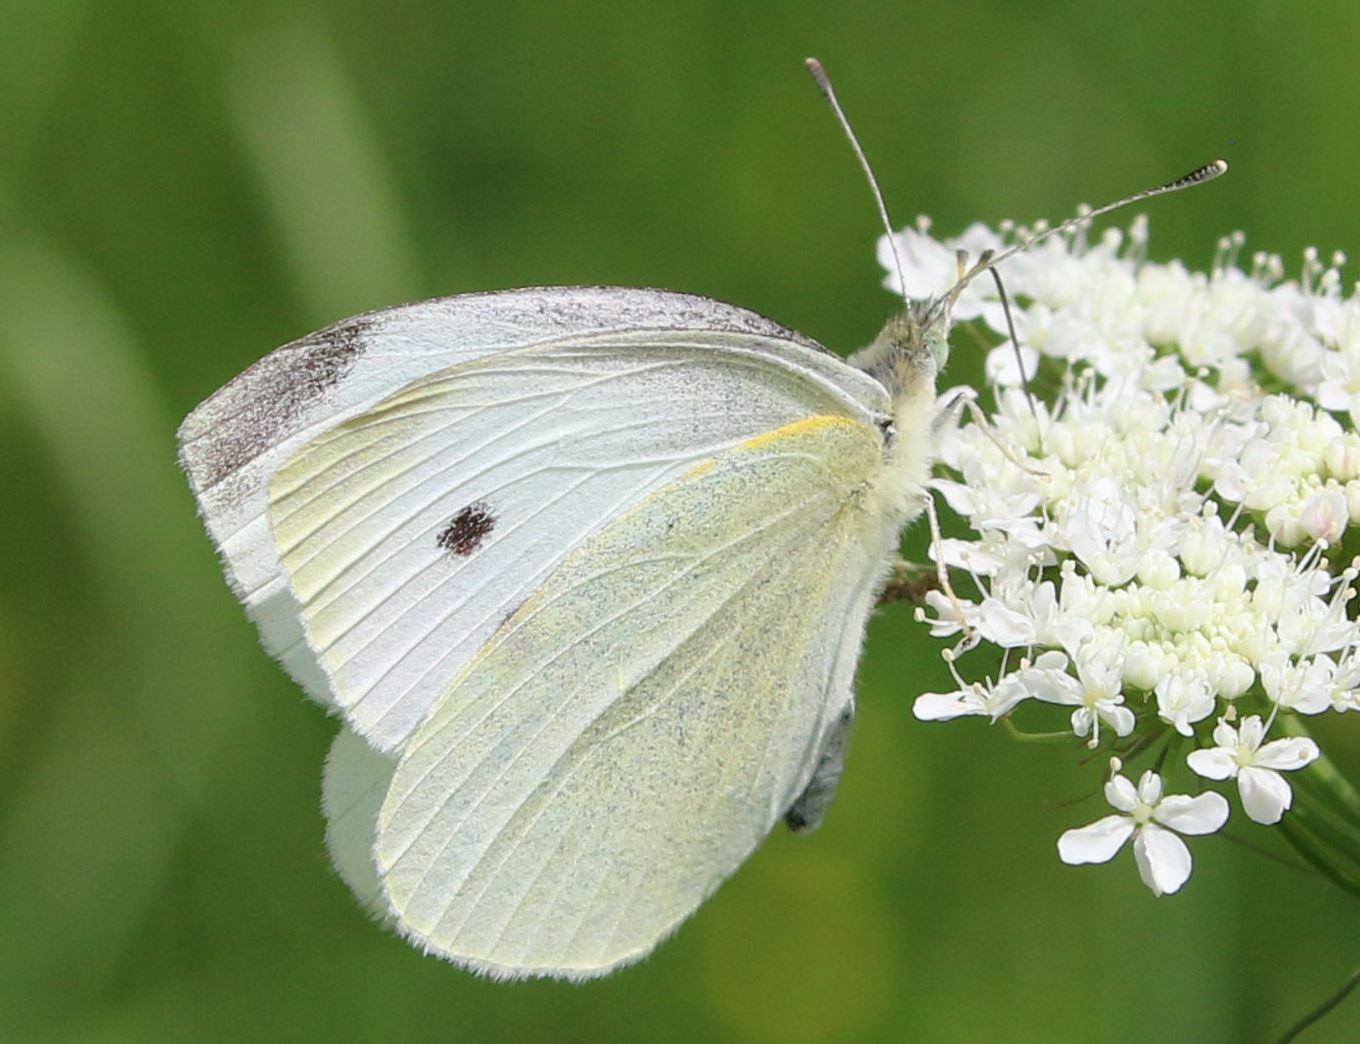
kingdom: Animalia
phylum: Arthropoda
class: Insecta
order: Lepidoptera
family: Pieridae
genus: Pieris
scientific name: Pieris rapae
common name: Small white
